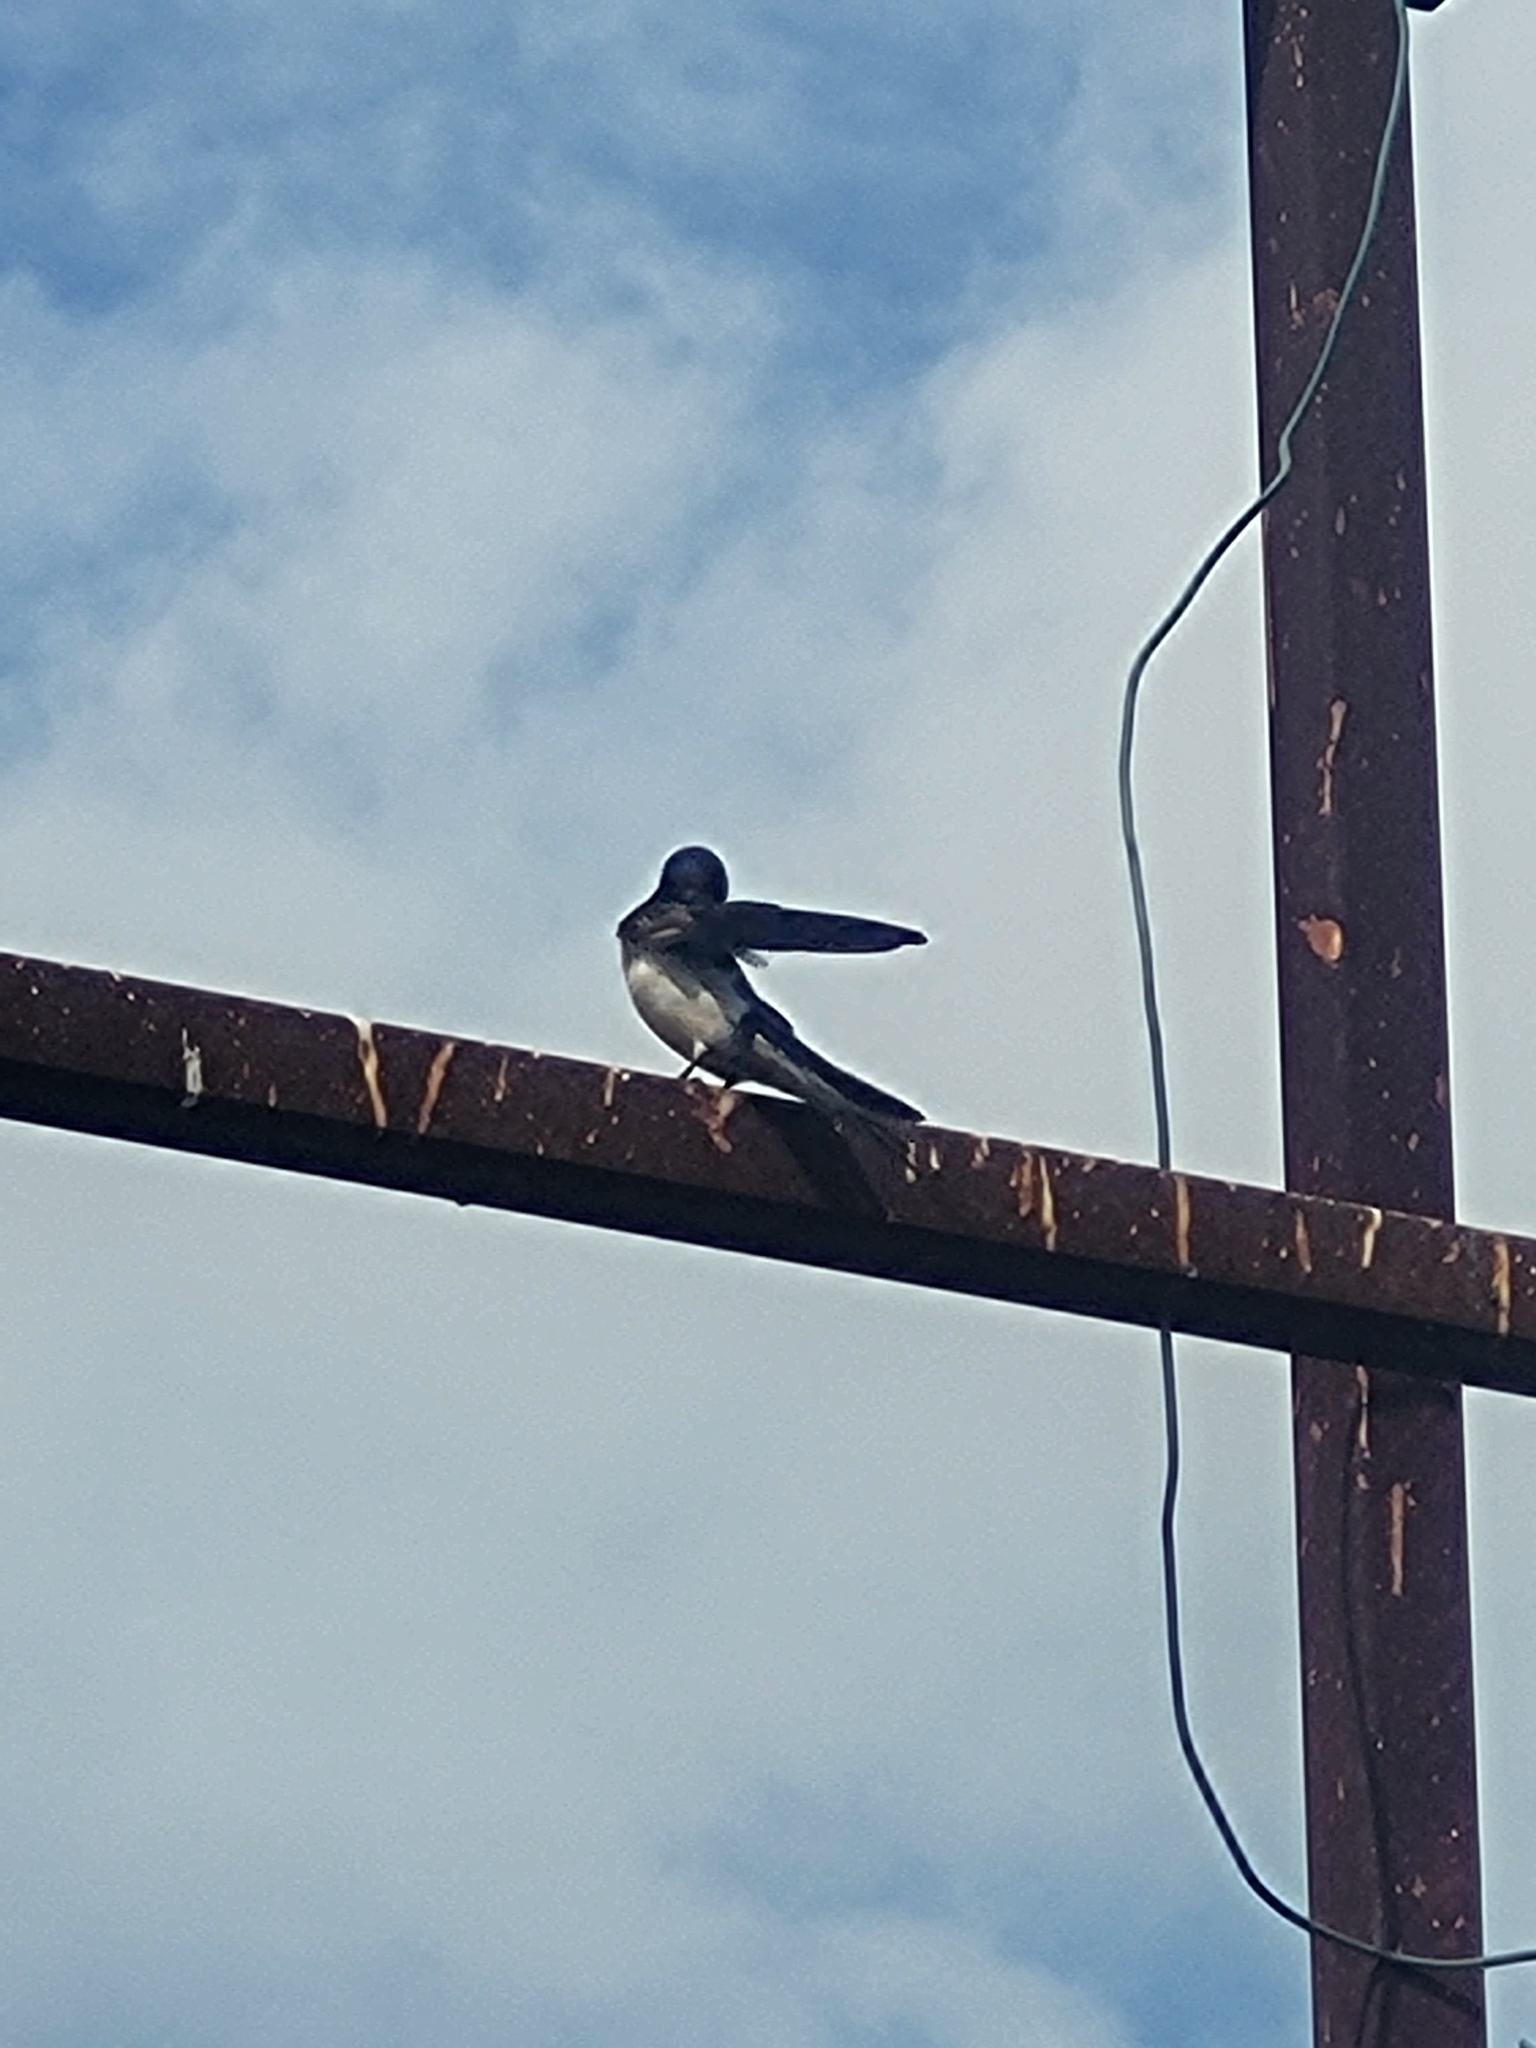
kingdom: Animalia
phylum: Chordata
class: Aves
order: Passeriformes
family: Hirundinidae
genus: Hirundo
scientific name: Hirundo rustica
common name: Barn swallow
